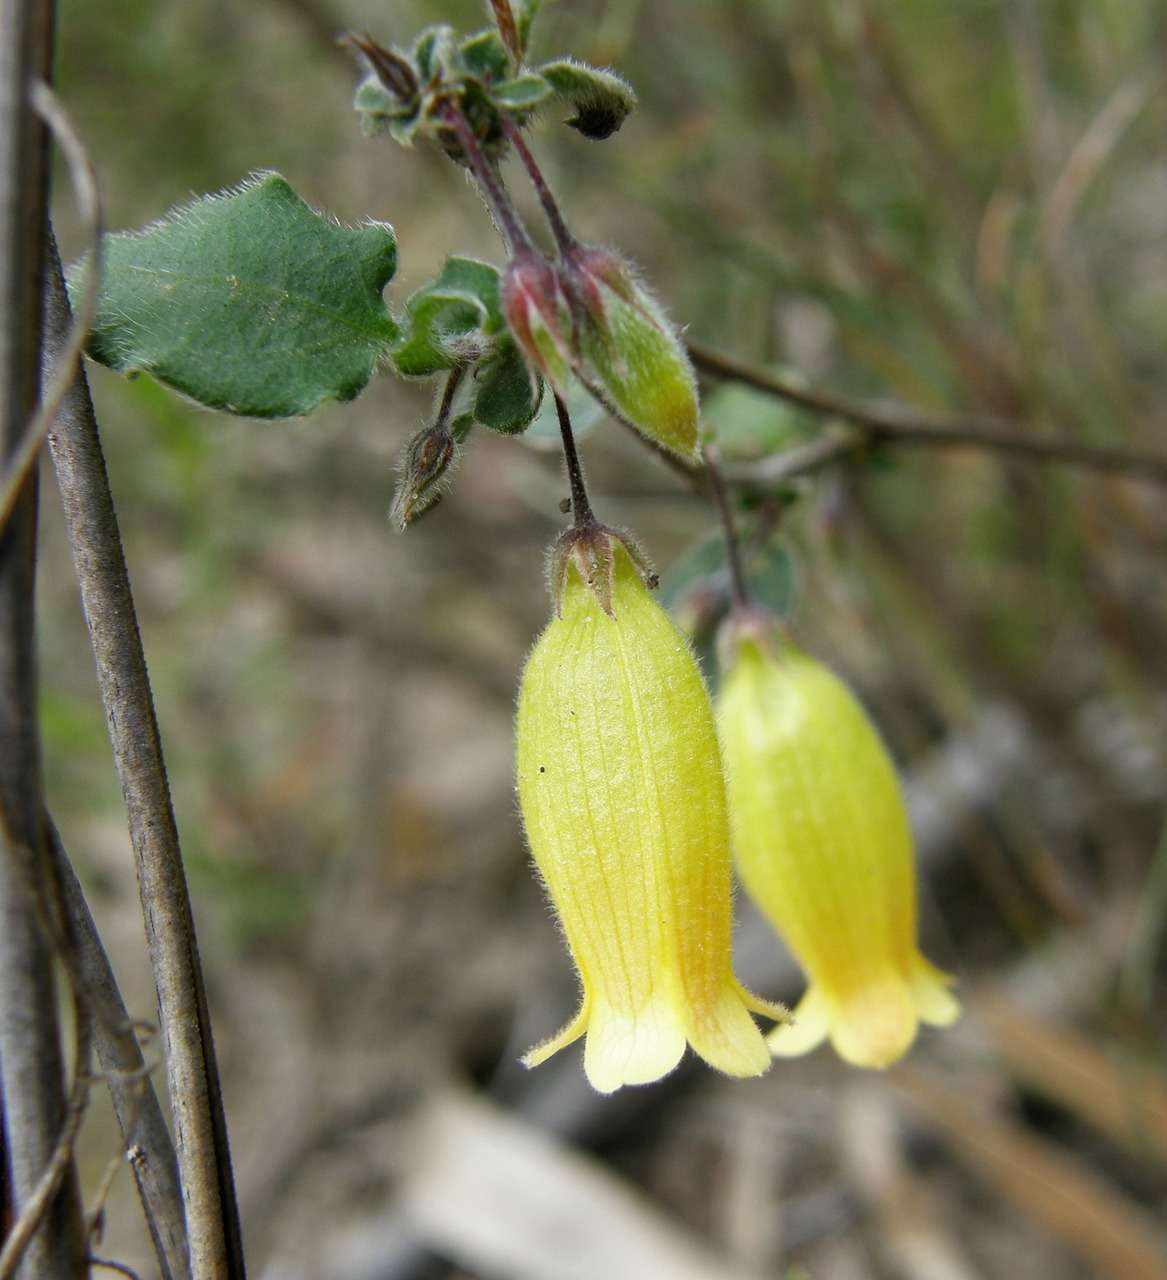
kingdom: Plantae
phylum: Tracheophyta
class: Magnoliopsida
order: Apiales
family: Pittosporaceae
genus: Marianthus
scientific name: Marianthus bignoniaceus
